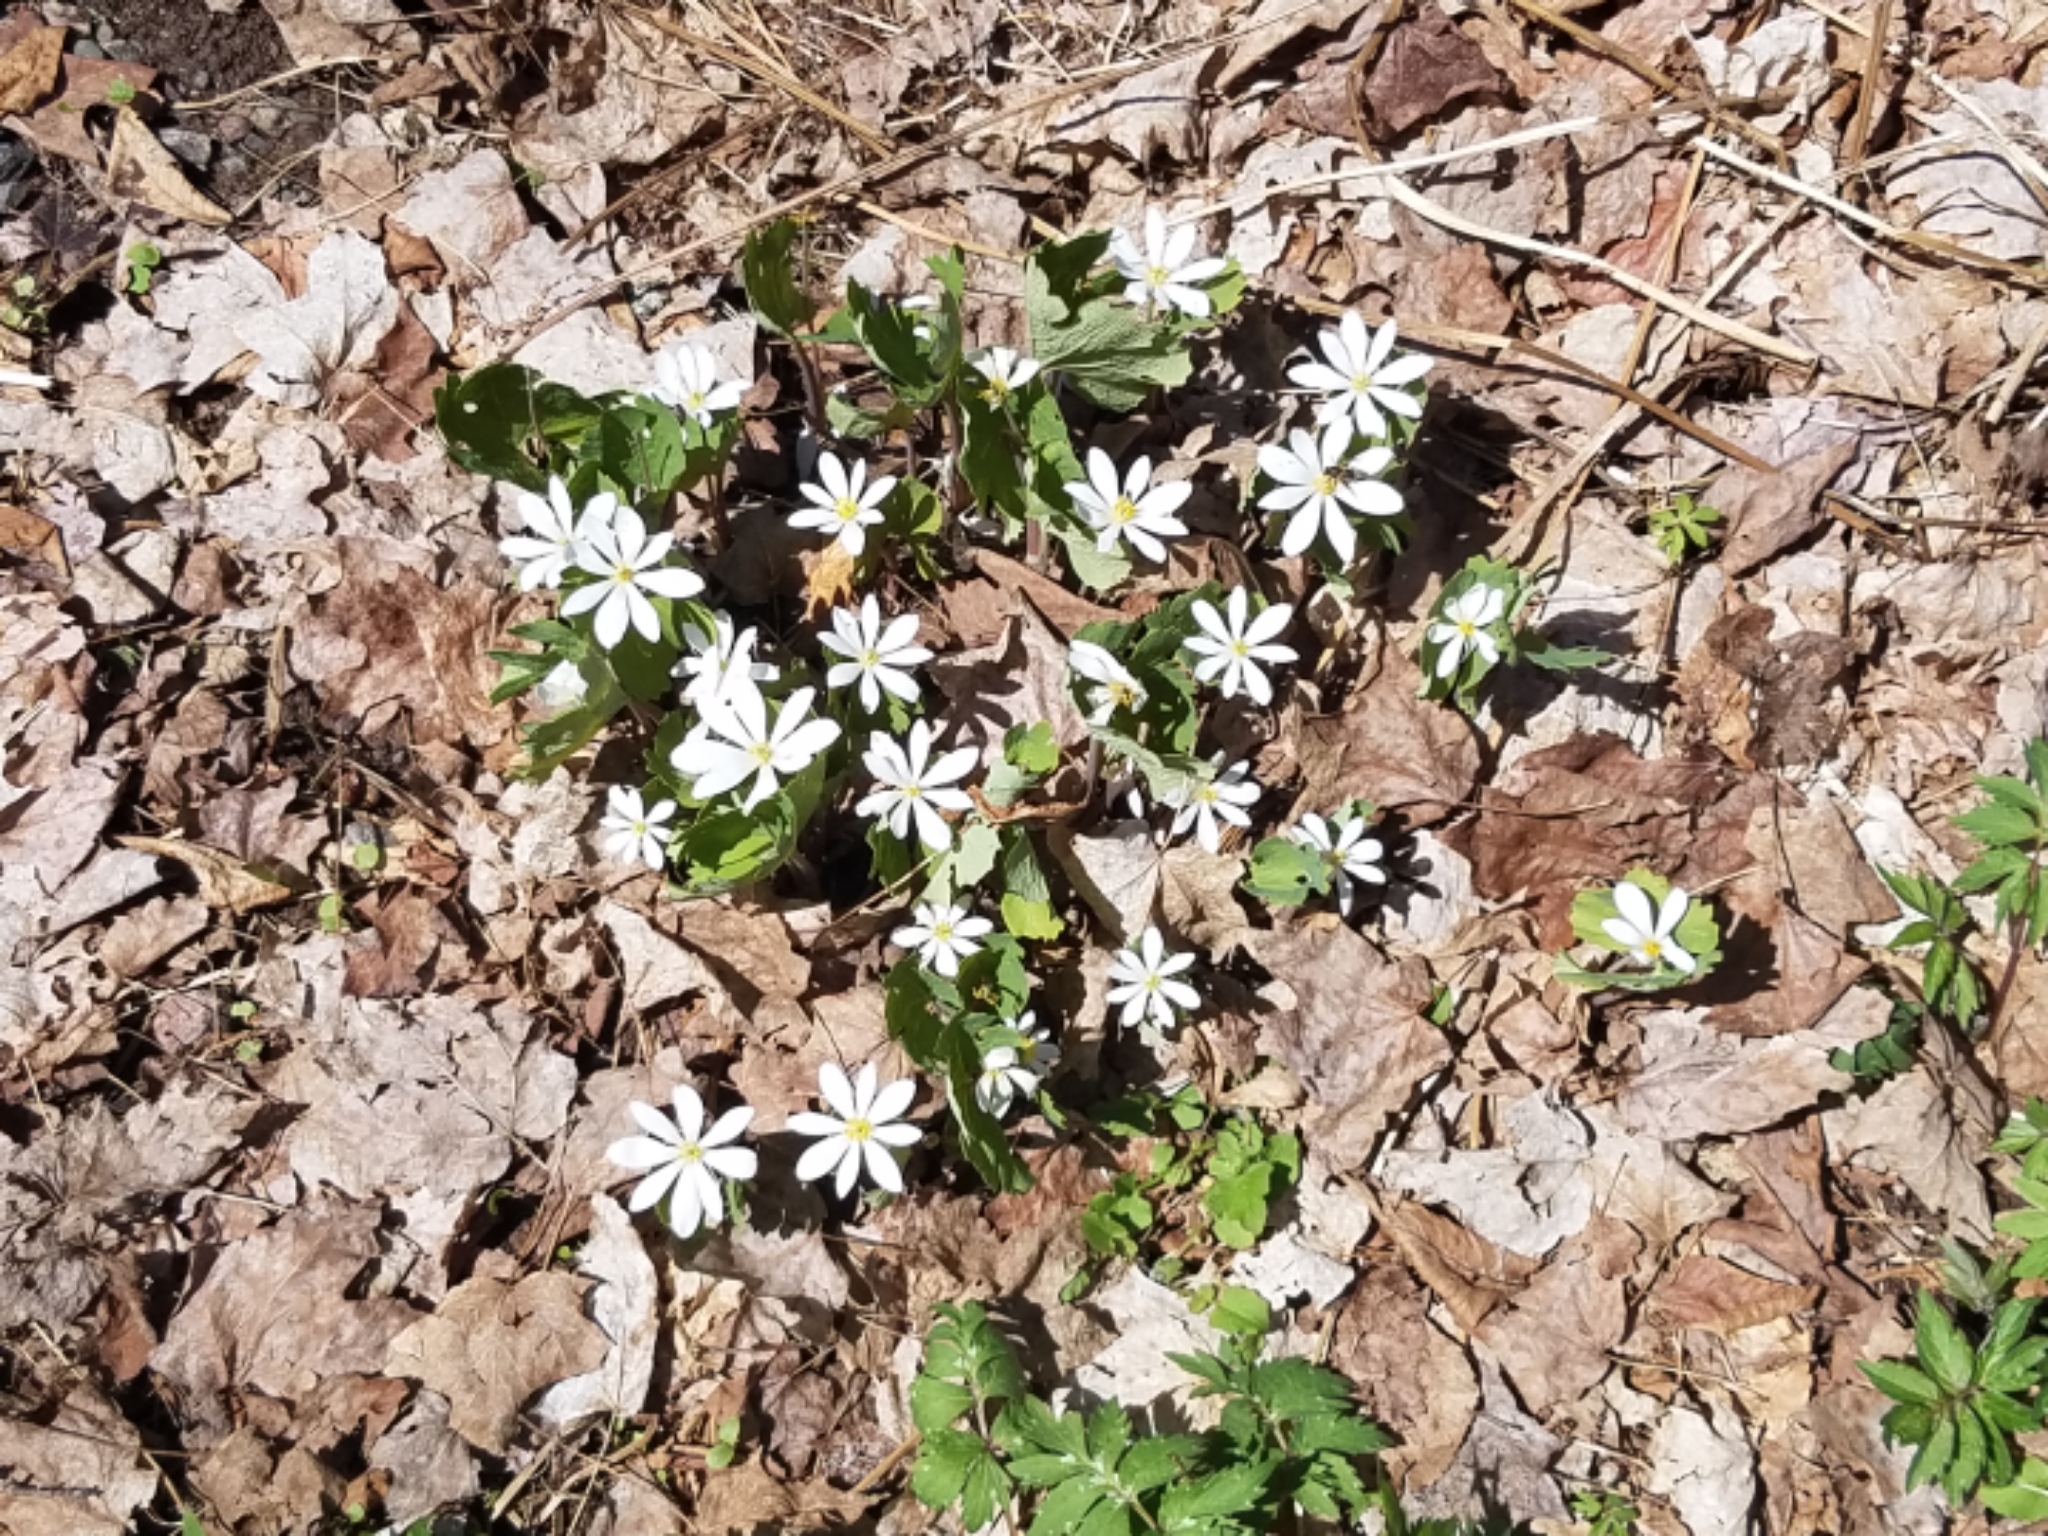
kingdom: Plantae
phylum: Tracheophyta
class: Magnoliopsida
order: Ranunculales
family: Papaveraceae
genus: Sanguinaria
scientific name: Sanguinaria canadensis
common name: Bloodroot
